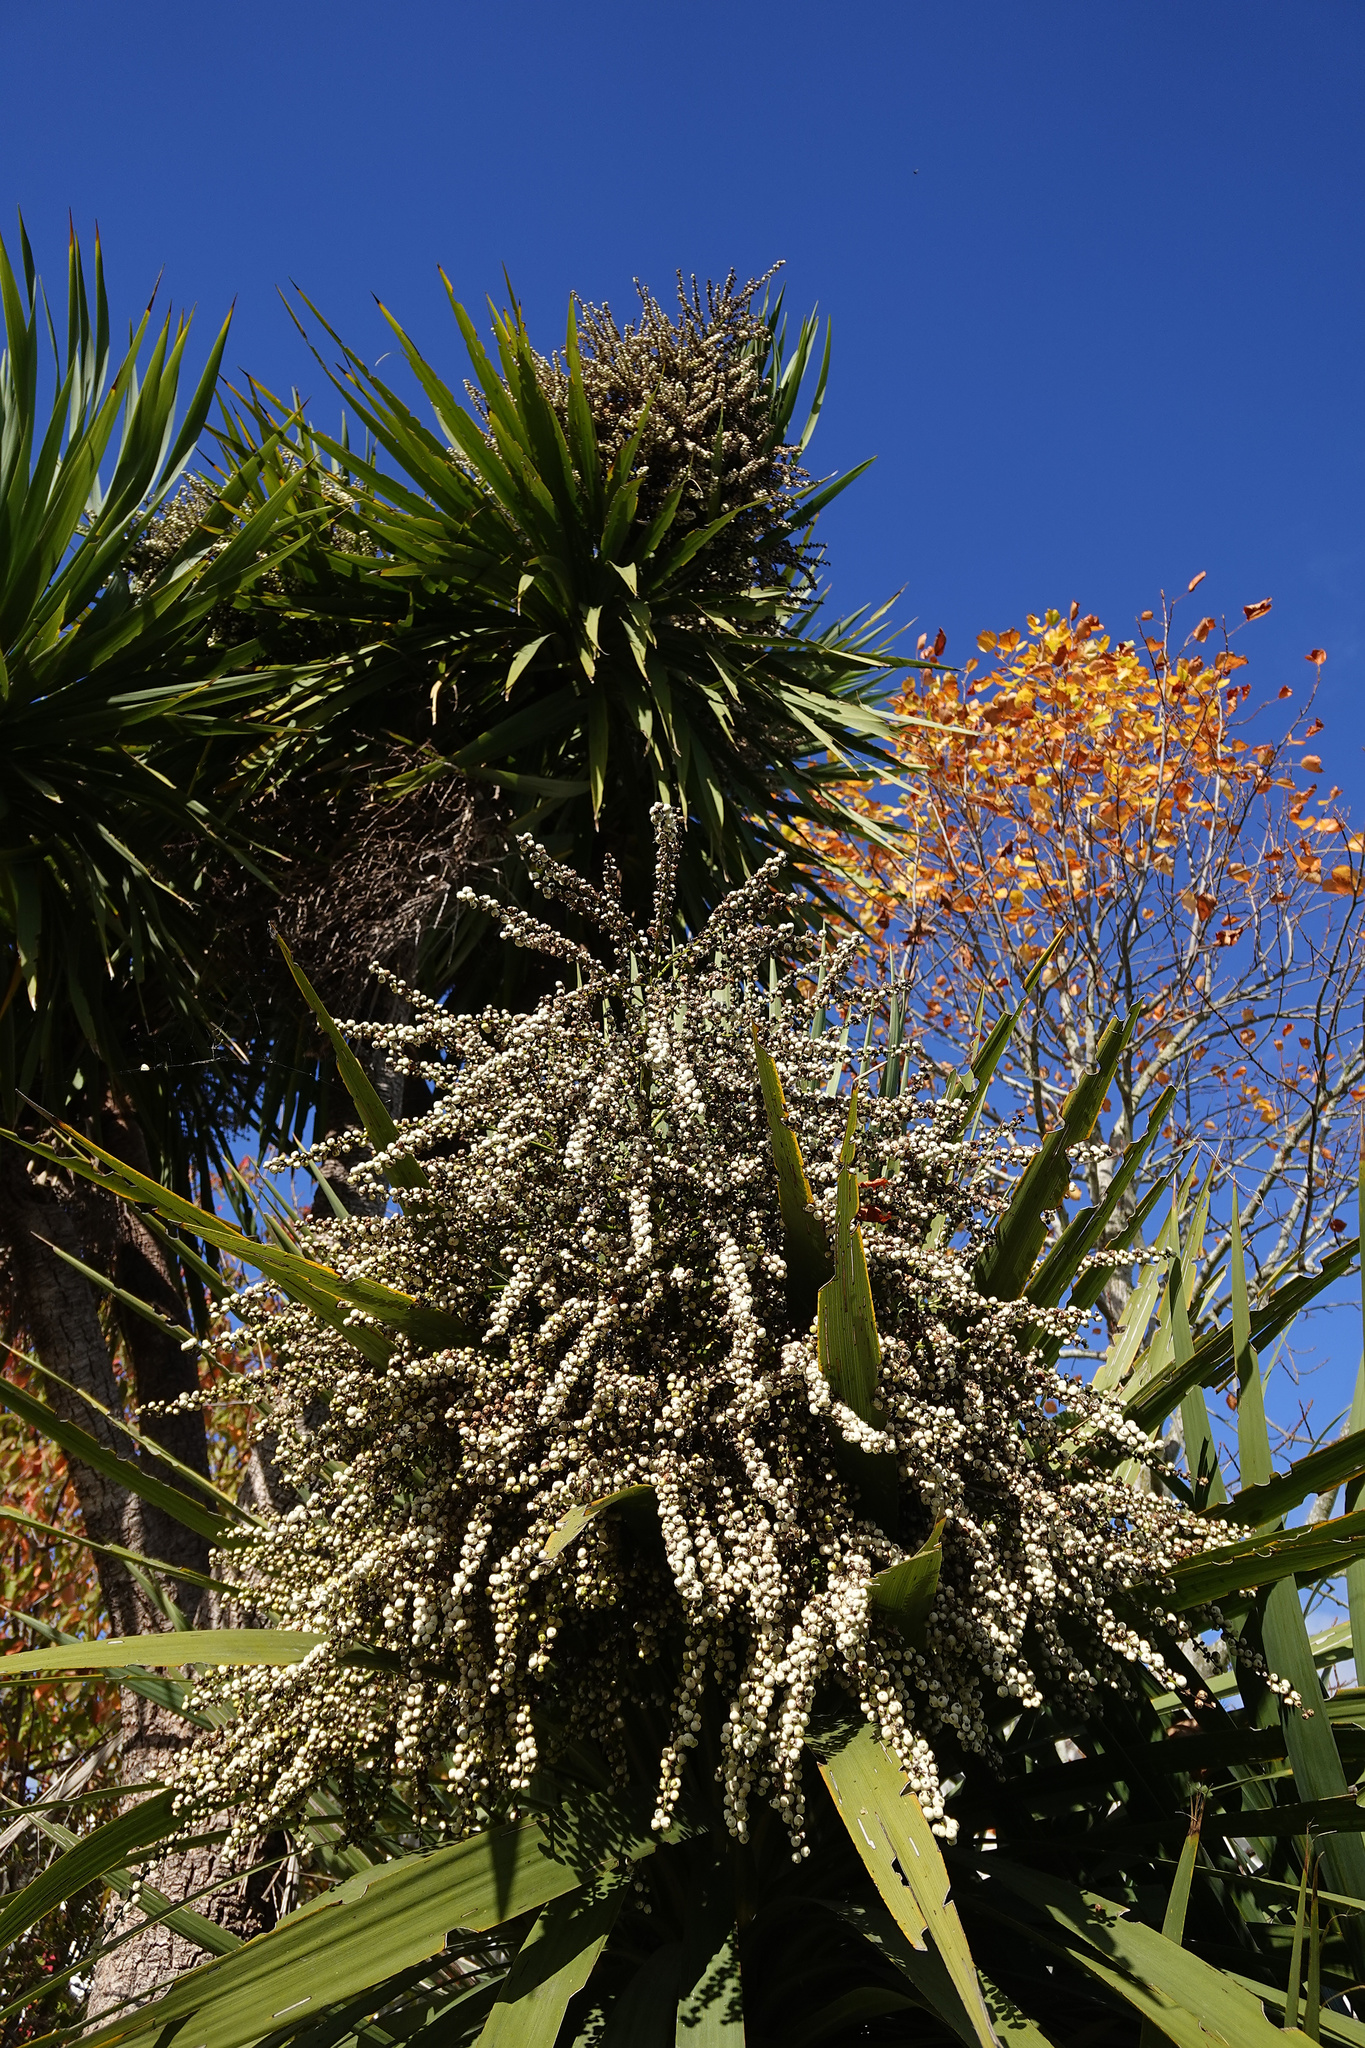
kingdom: Plantae
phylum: Tracheophyta
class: Liliopsida
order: Asparagales
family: Asparagaceae
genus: Cordyline
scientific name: Cordyline australis
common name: Cabbage-palm
